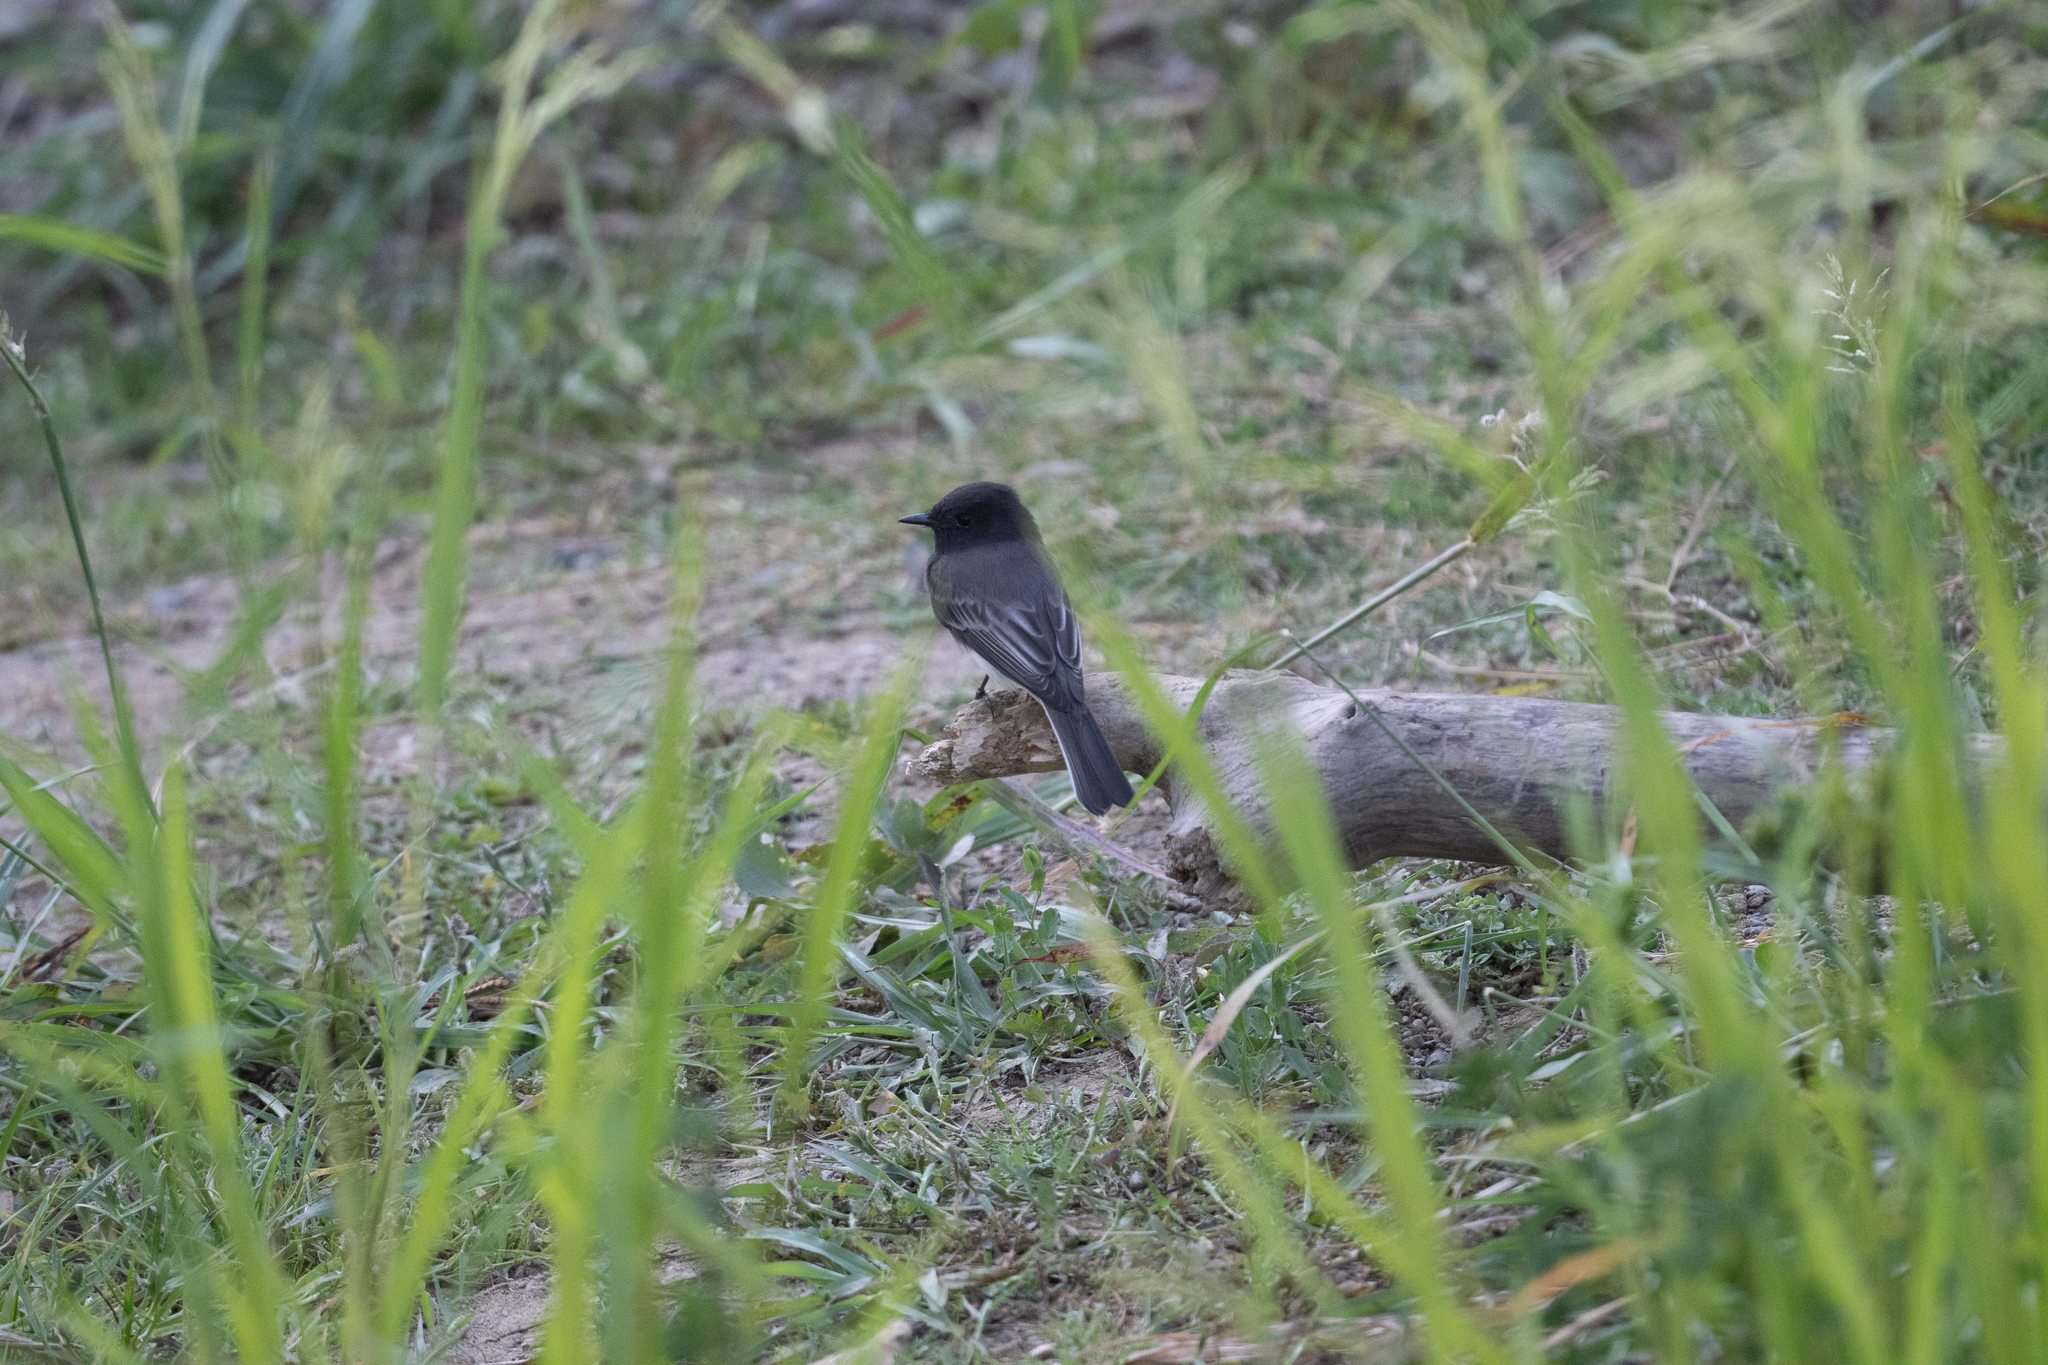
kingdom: Animalia
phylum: Chordata
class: Aves
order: Passeriformes
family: Tyrannidae
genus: Sayornis
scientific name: Sayornis nigricans
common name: Black phoebe
